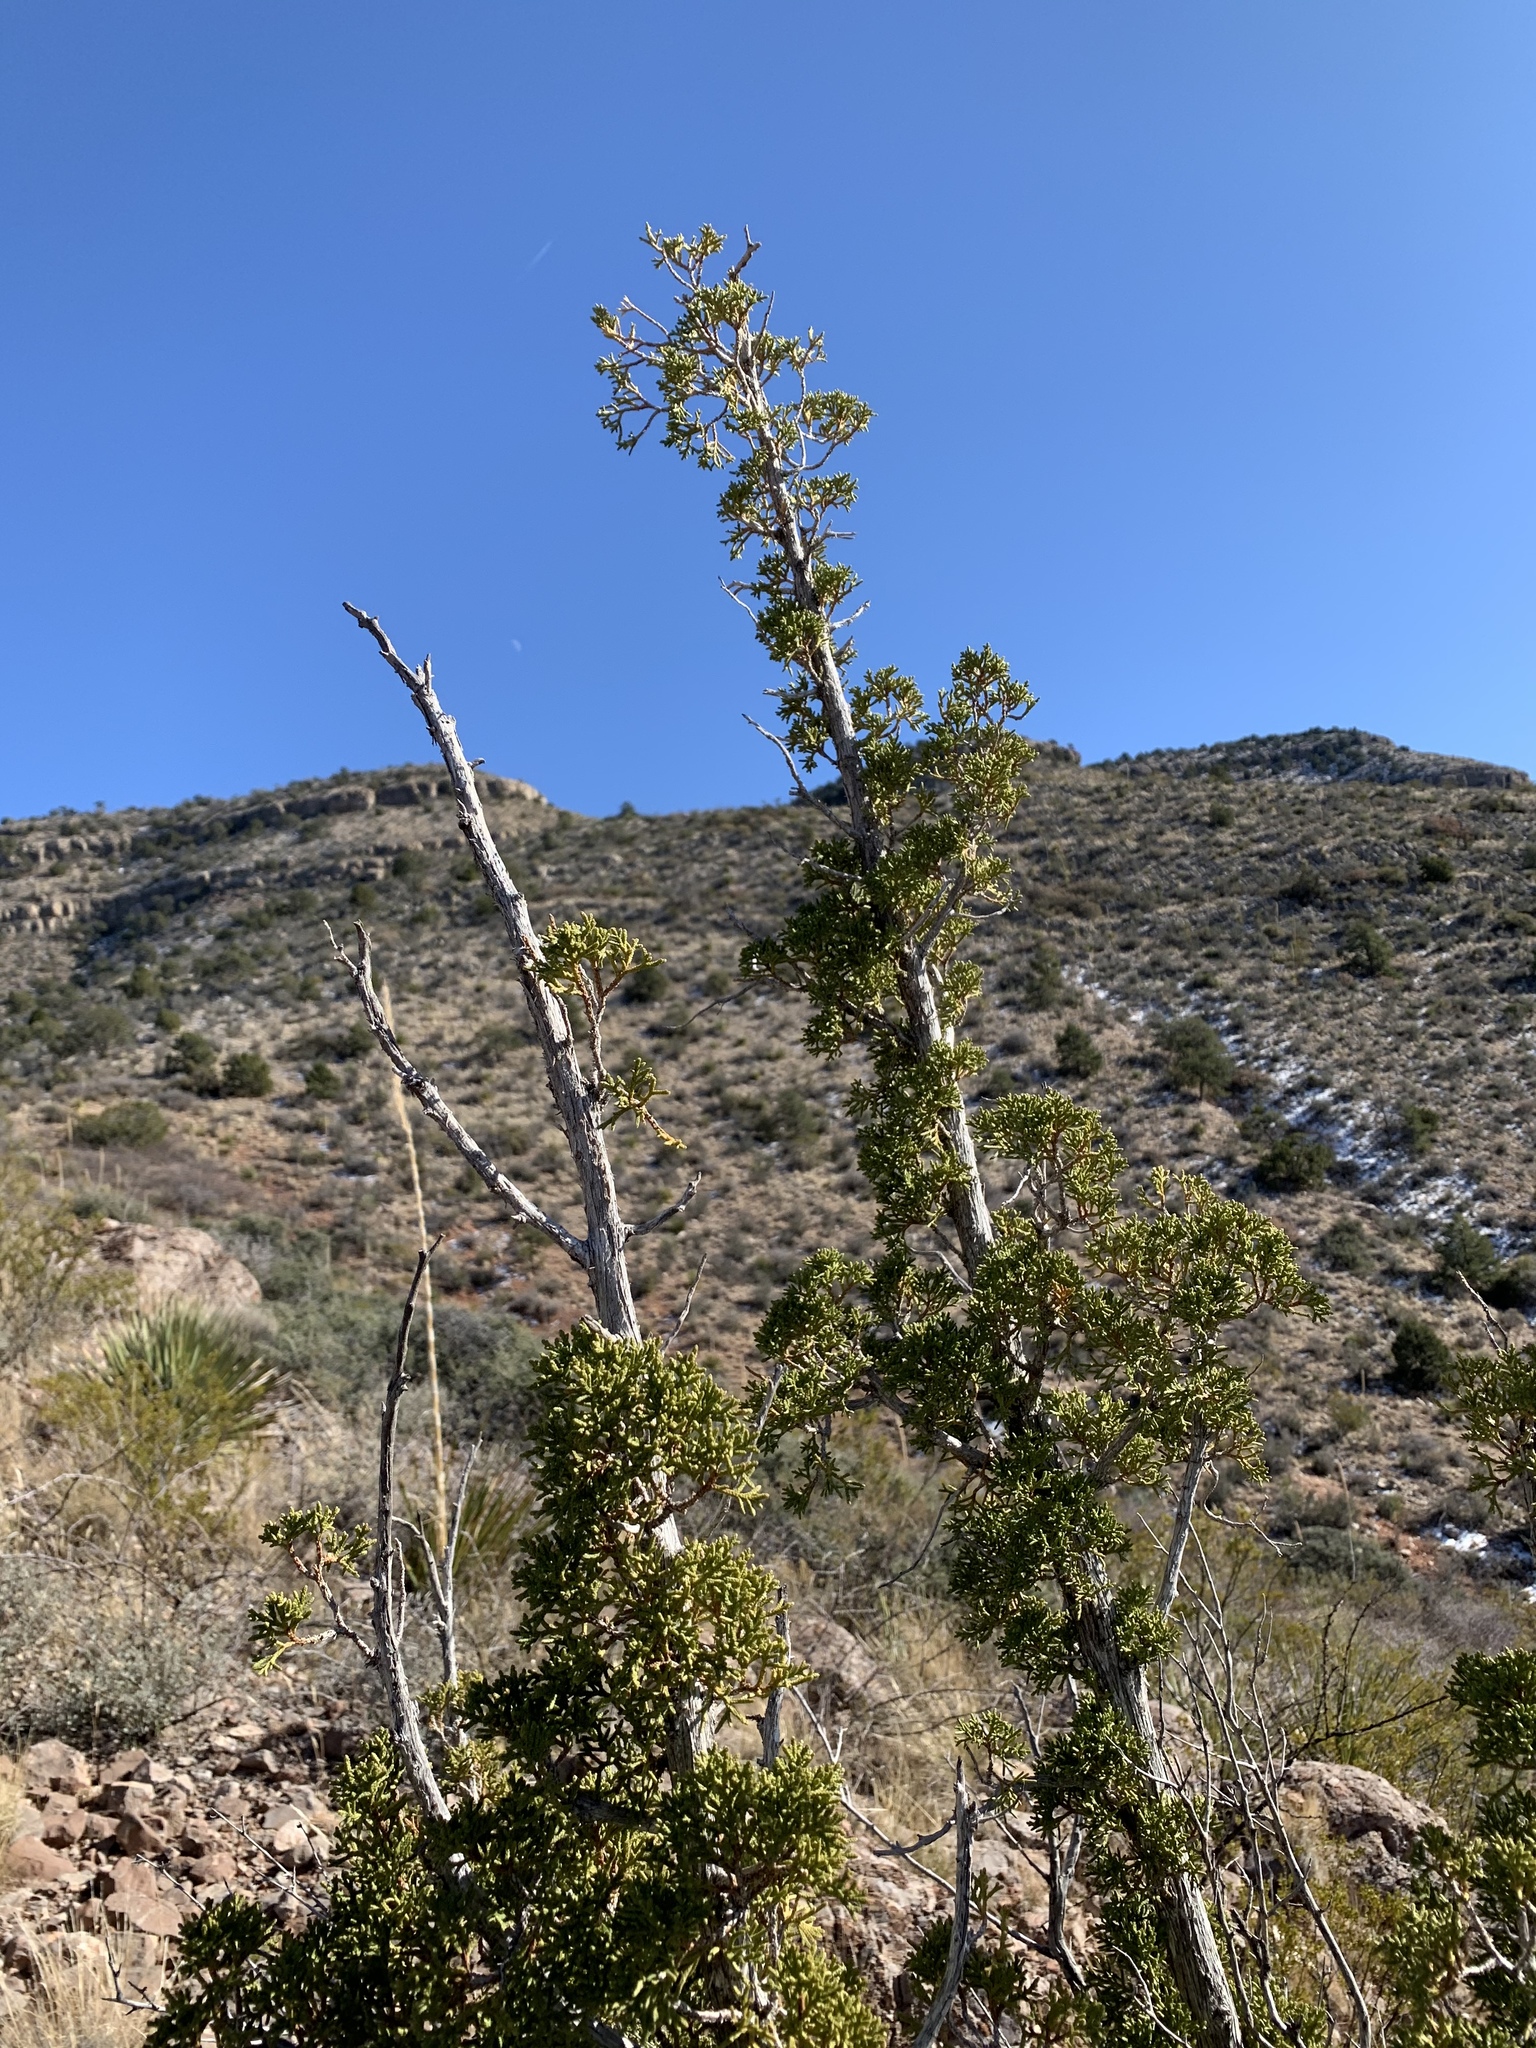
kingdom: Plantae
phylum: Tracheophyta
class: Pinopsida
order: Pinales
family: Cupressaceae
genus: Juniperus
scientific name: Juniperus monosperma
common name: One-seed juniper
